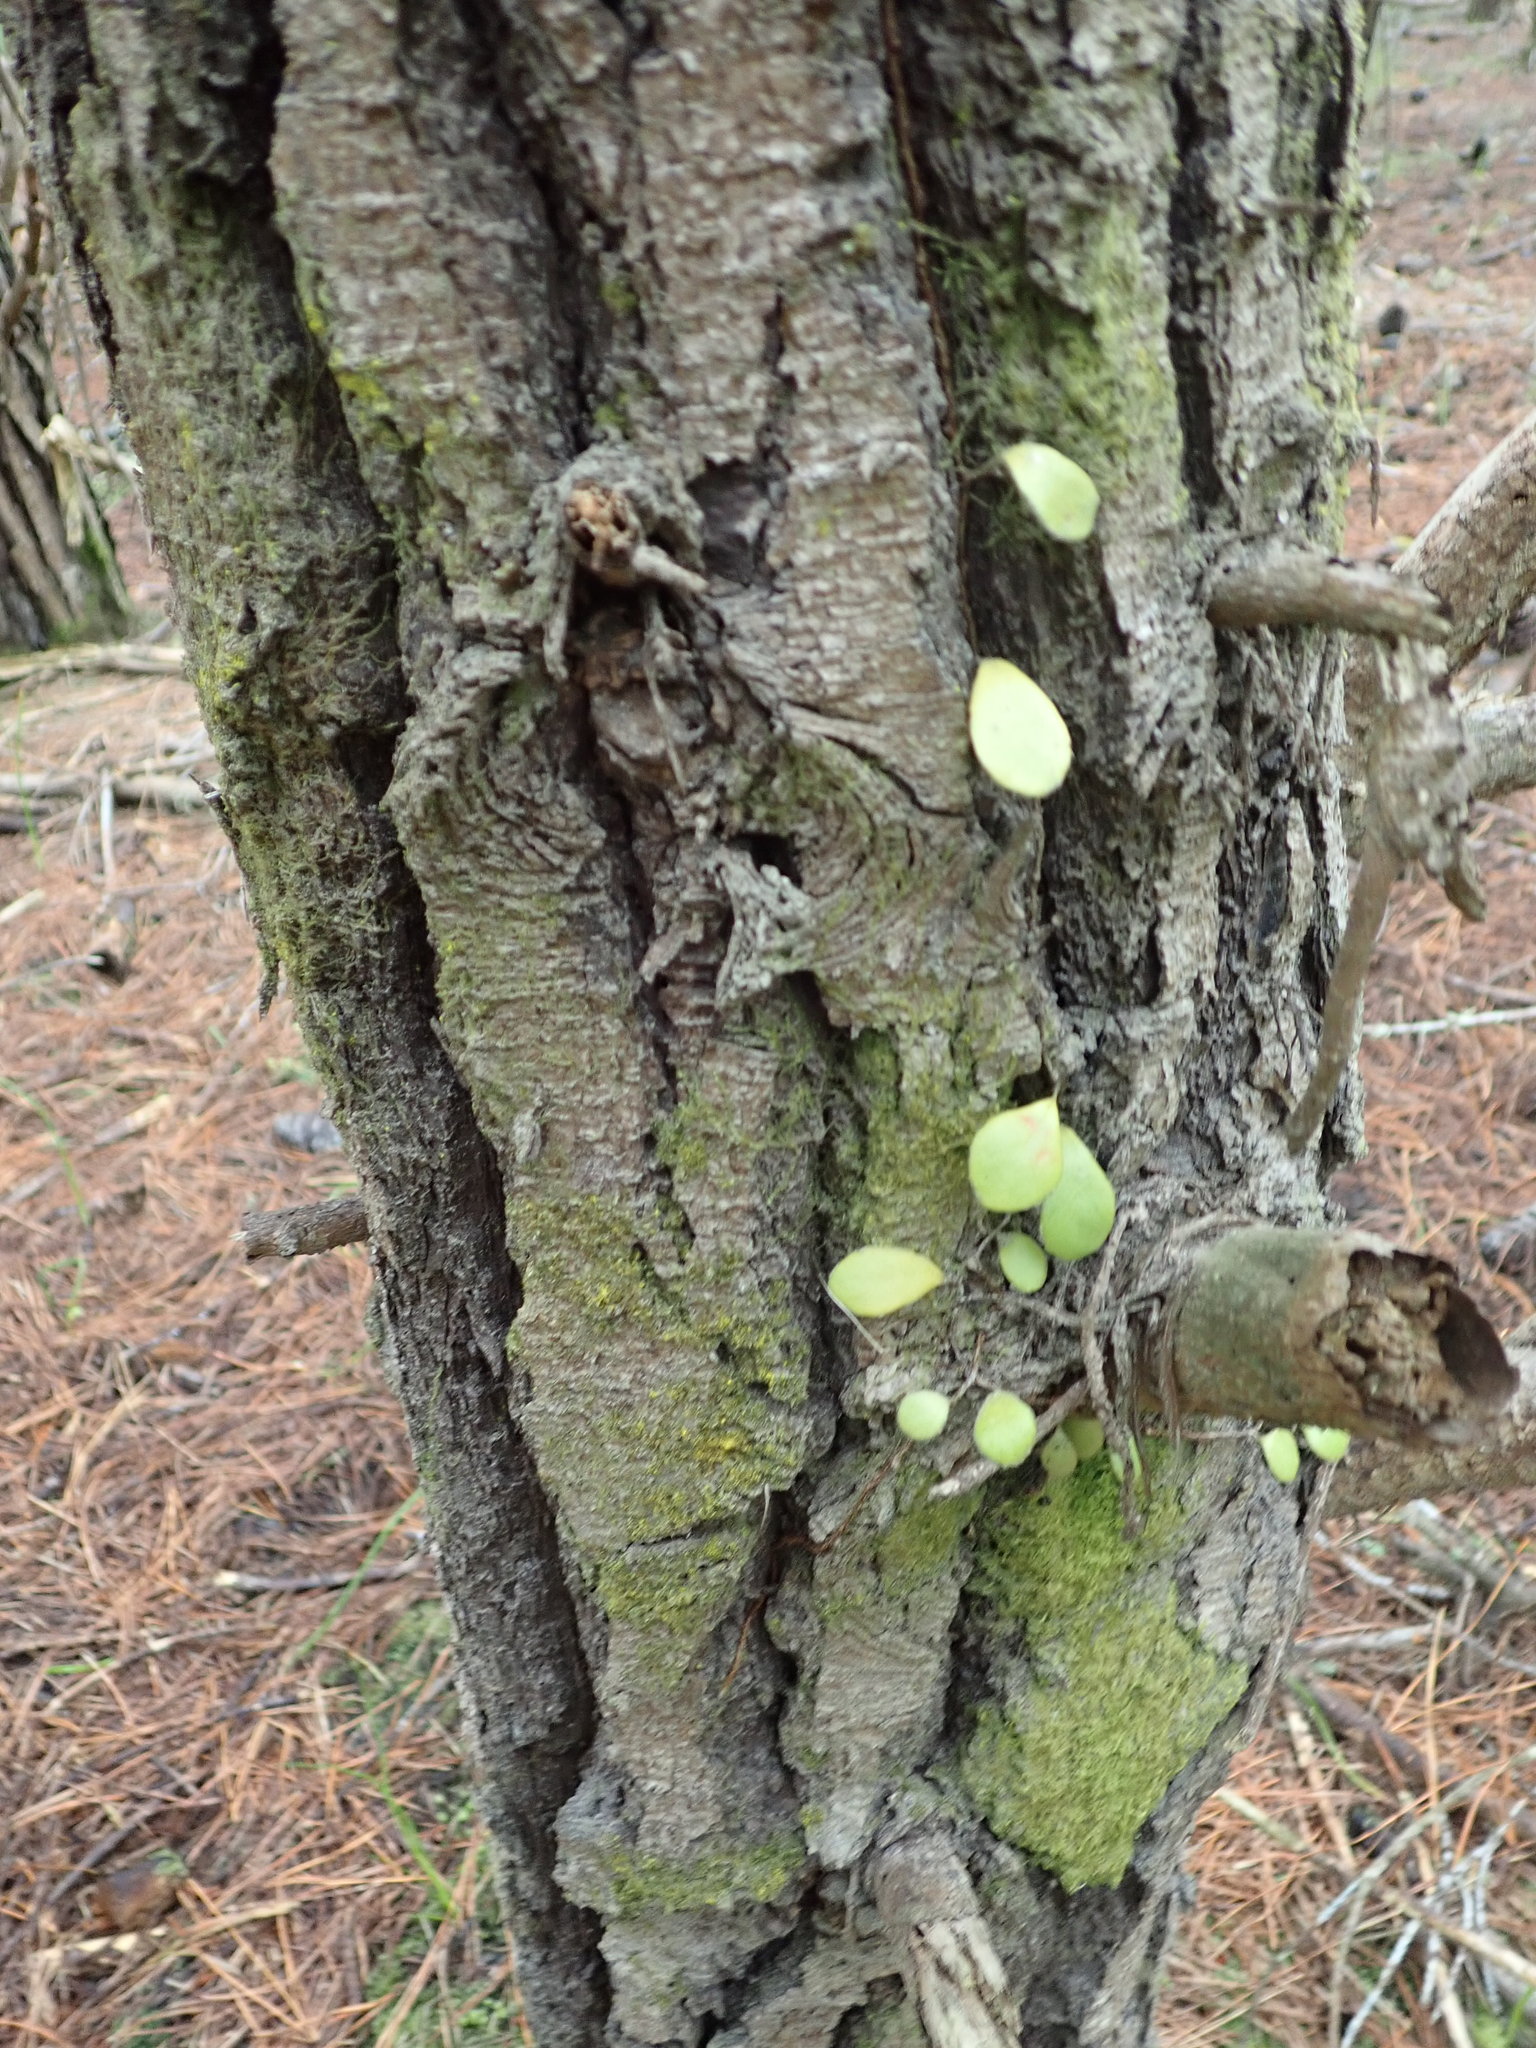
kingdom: Plantae
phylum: Tracheophyta
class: Polypodiopsida
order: Polypodiales
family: Polypodiaceae
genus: Pyrrosia
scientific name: Pyrrosia eleagnifolia
